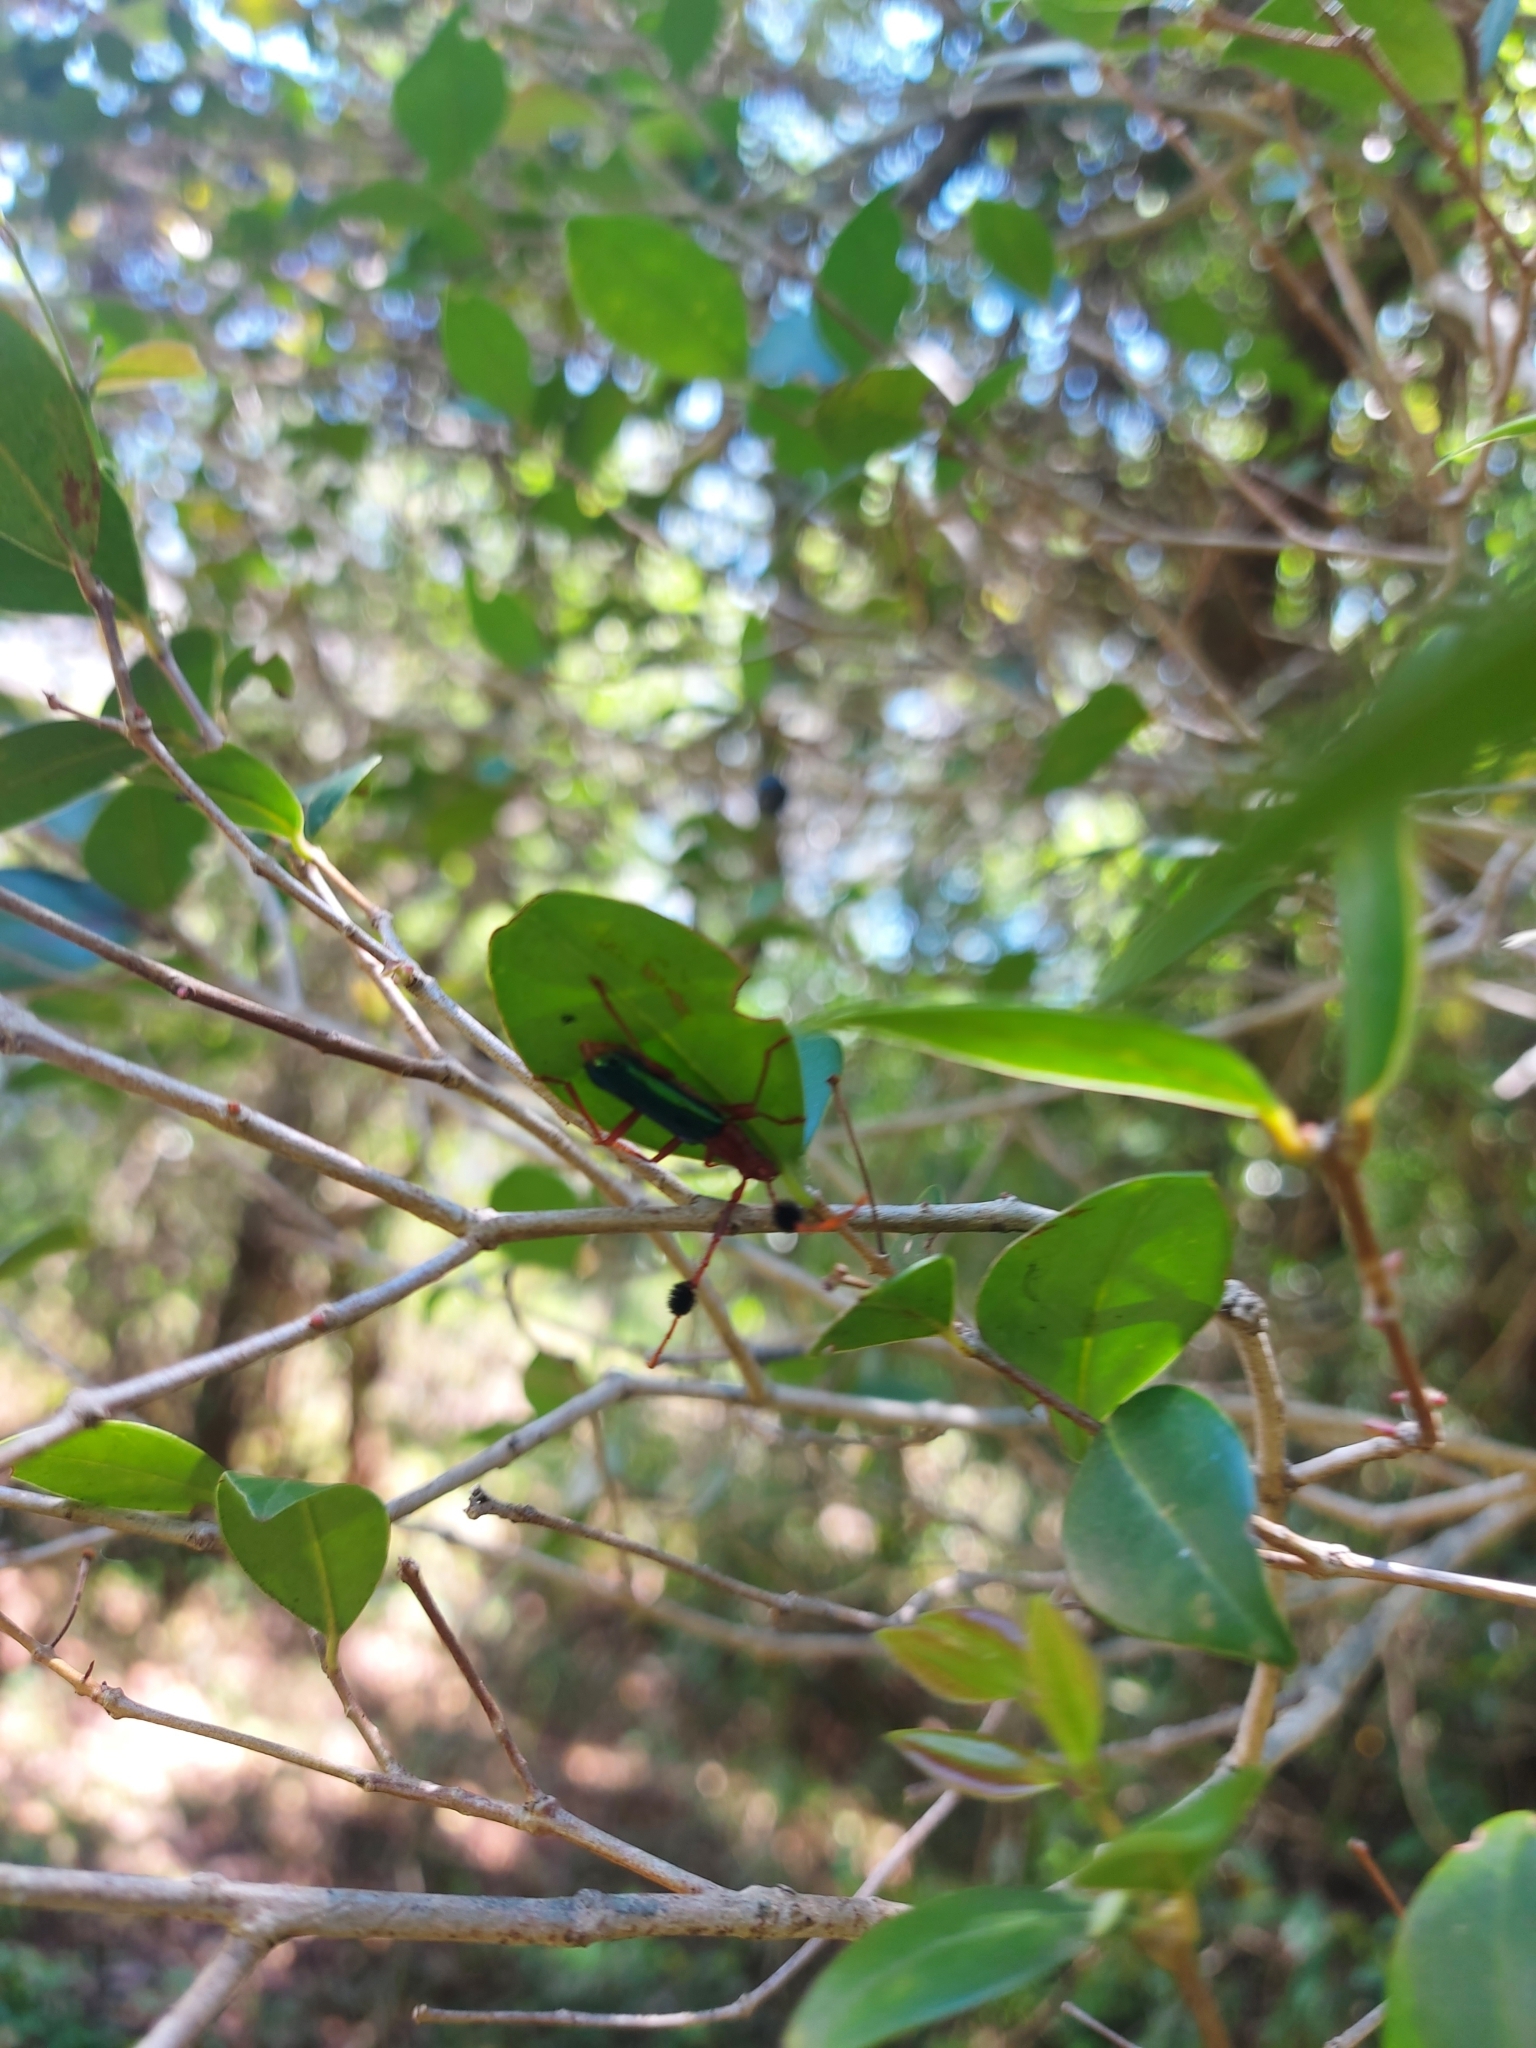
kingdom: Animalia
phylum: Arthropoda
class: Insecta
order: Coleoptera
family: Cerambycidae
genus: Compsocerus
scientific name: Compsocerus violaceus
